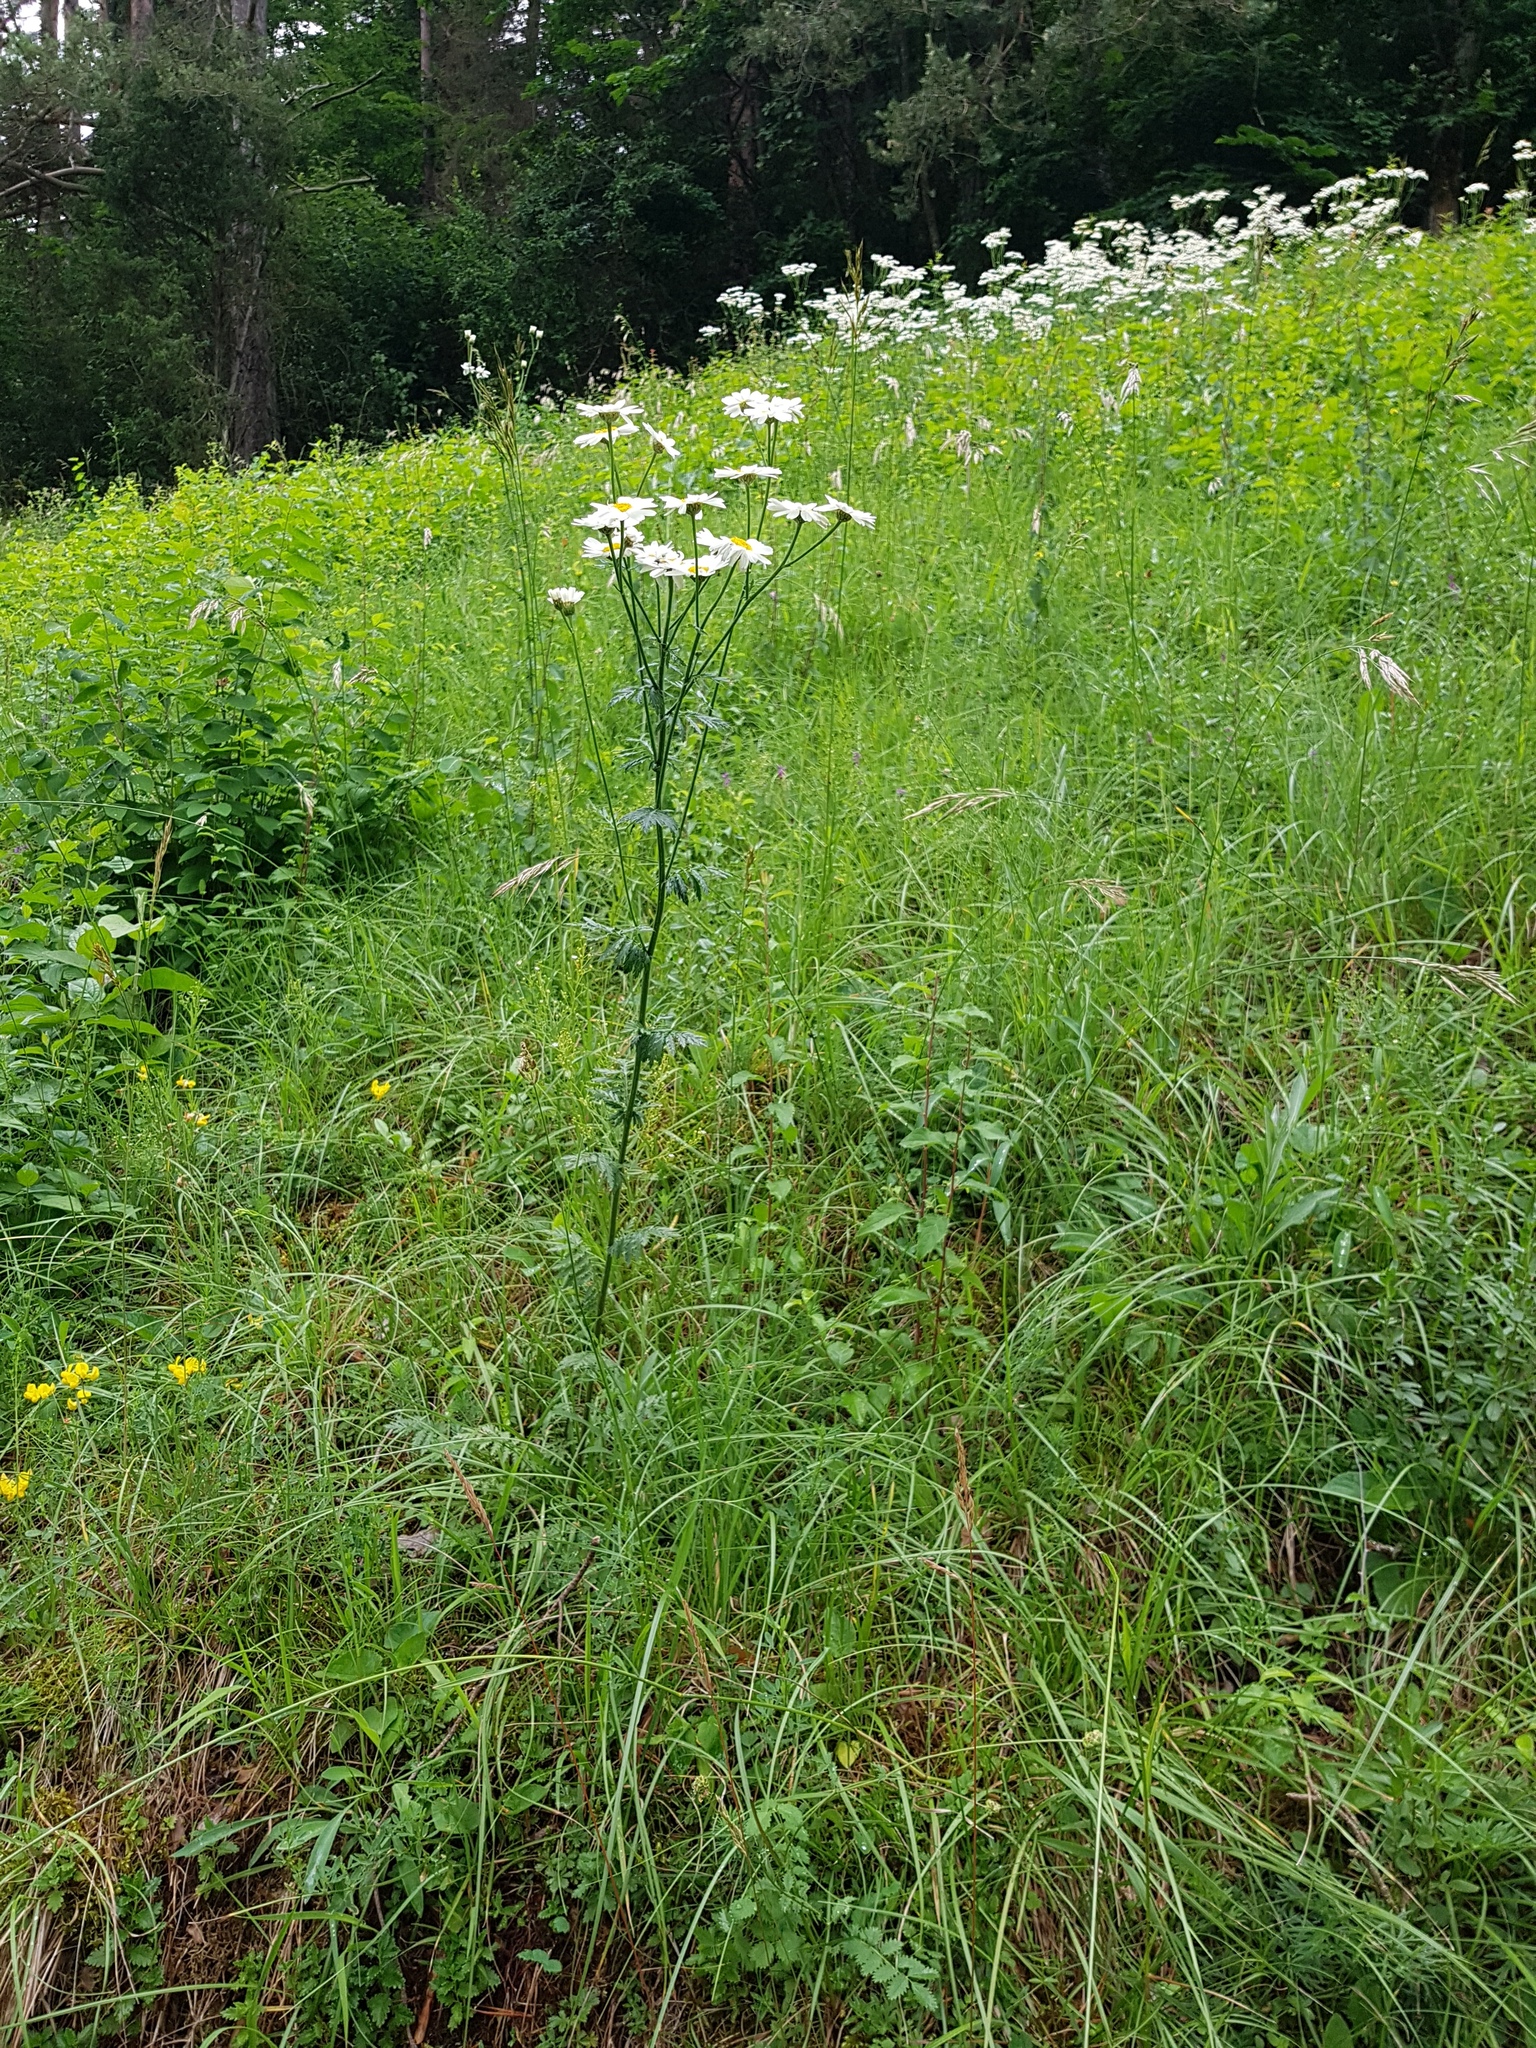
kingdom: Plantae
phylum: Tracheophyta
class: Magnoliopsida
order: Asterales
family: Asteraceae
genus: Tanacetum
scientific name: Tanacetum corymbosum
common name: Scentless feverfew
